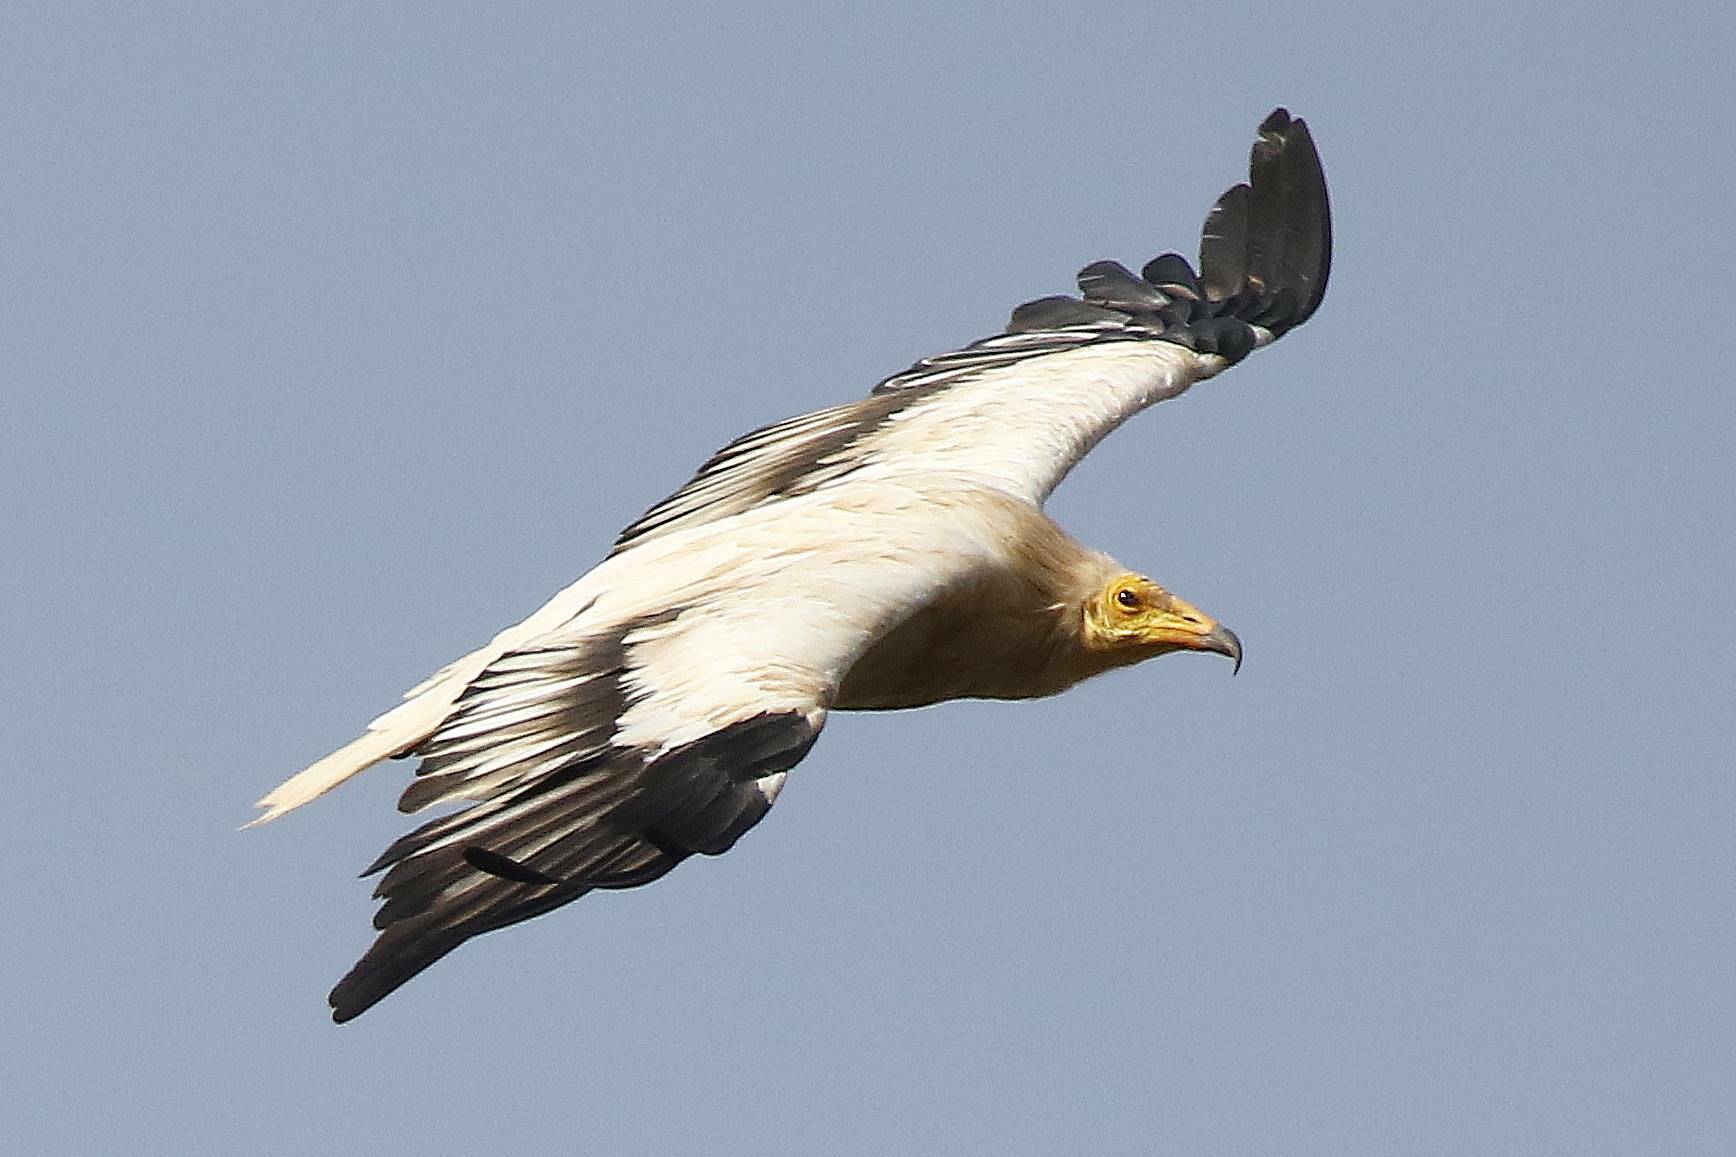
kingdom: Animalia
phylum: Chordata
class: Aves
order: Accipitriformes
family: Accipitridae
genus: Neophron
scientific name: Neophron percnopterus
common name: Egyptian vulture
